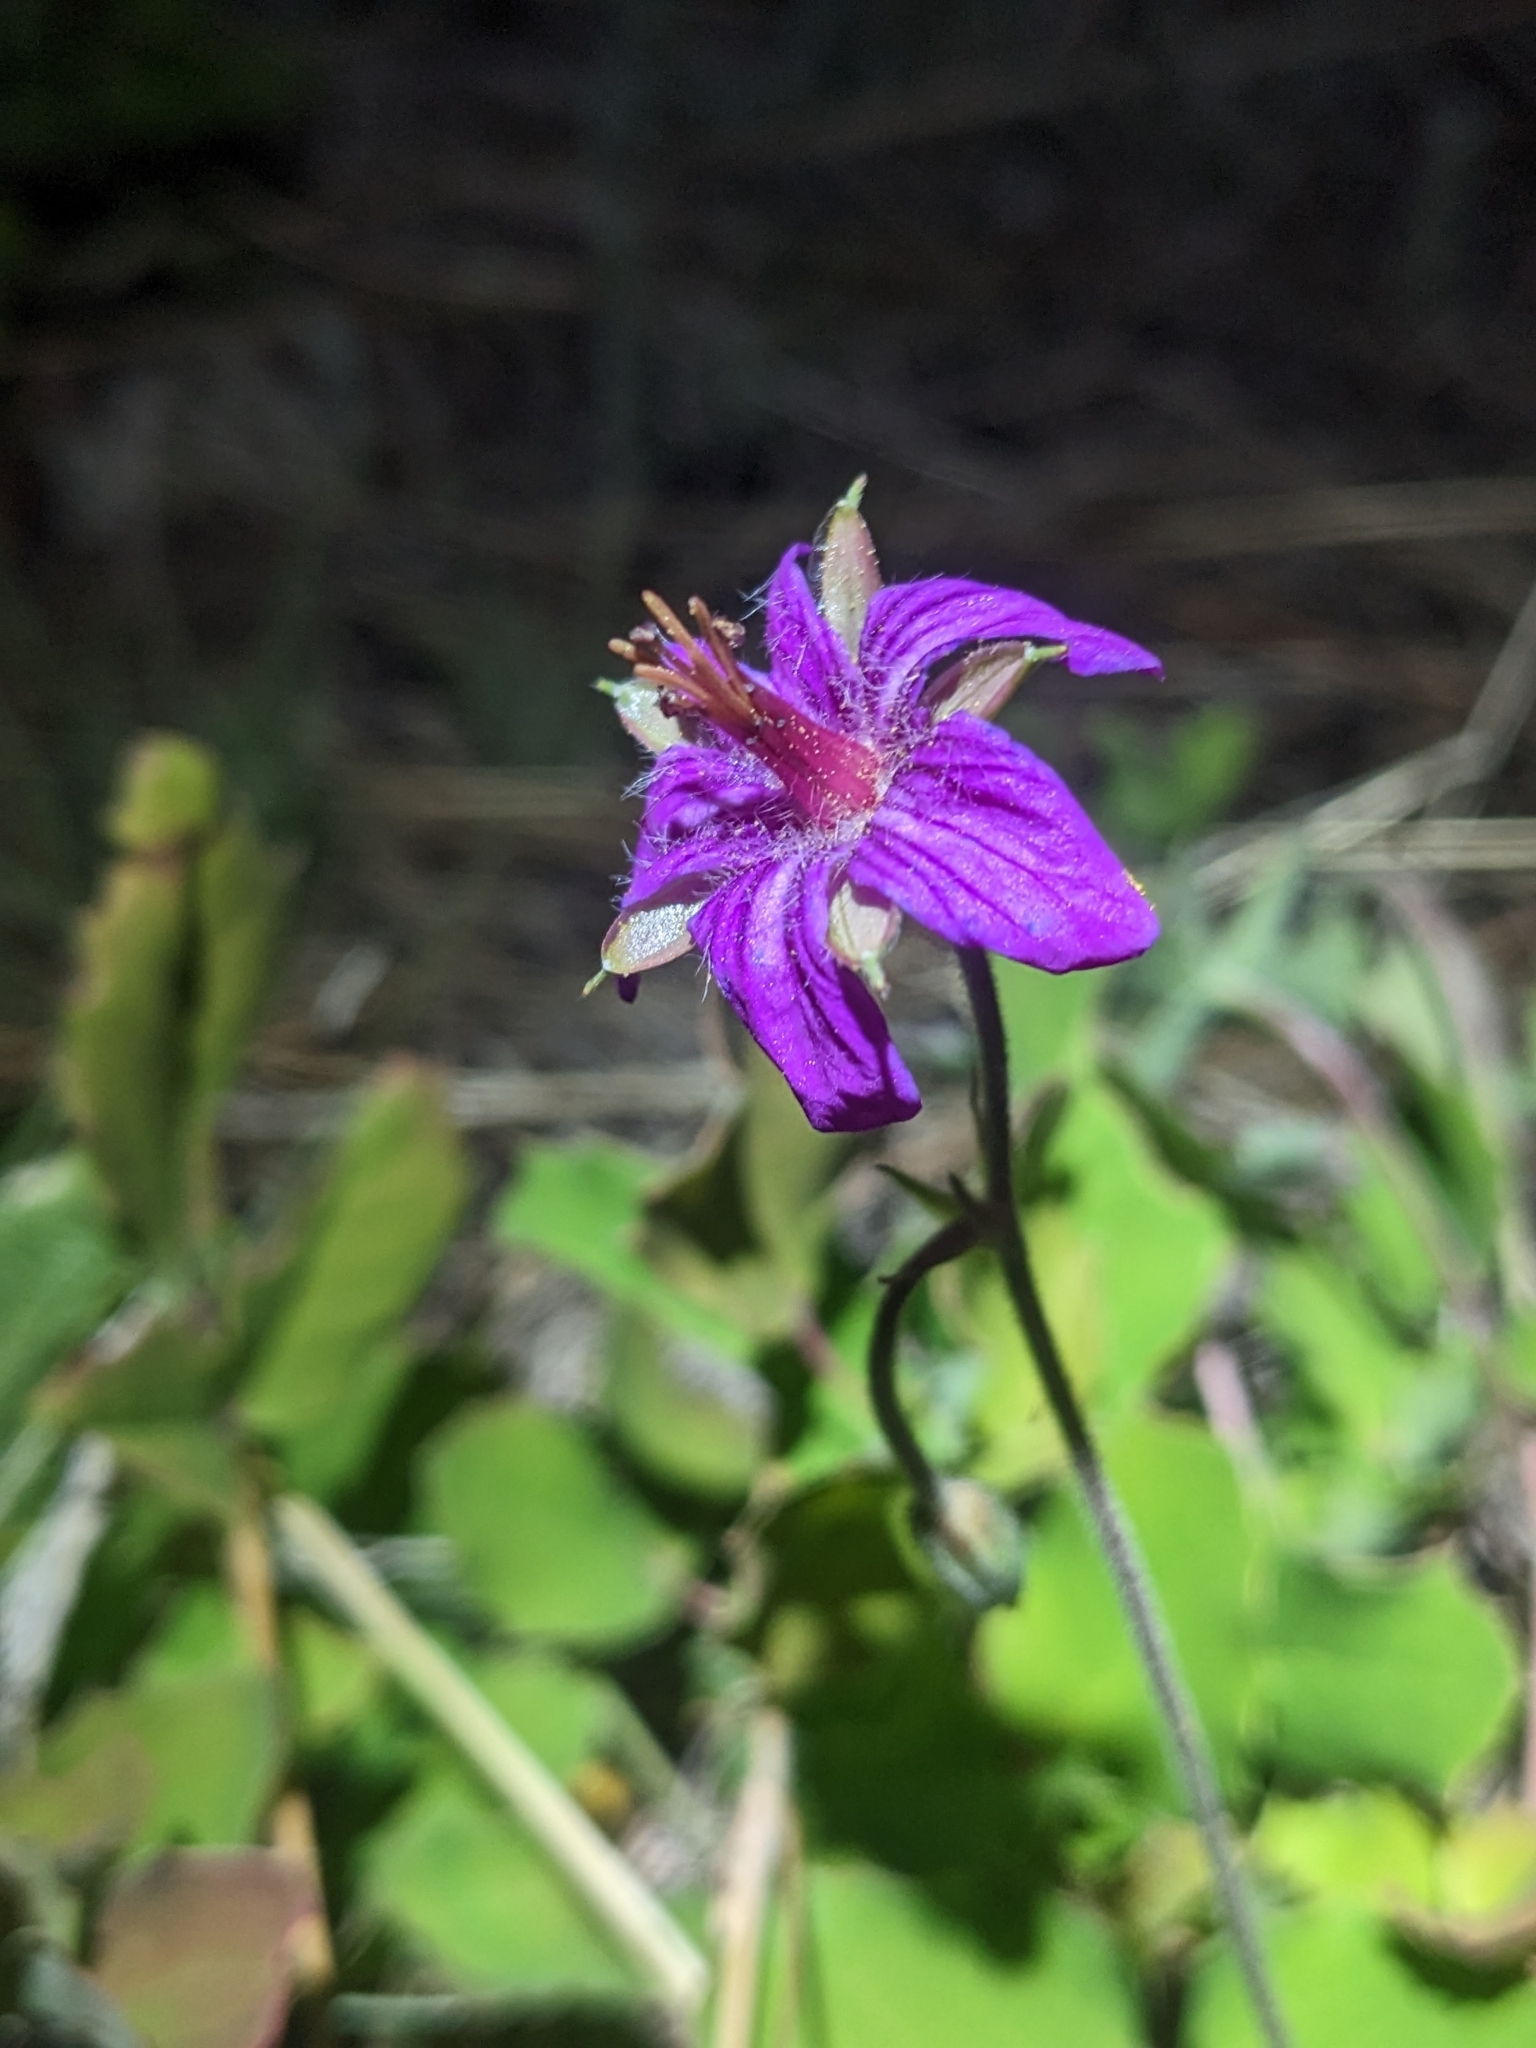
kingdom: Plantae
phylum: Tracheophyta
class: Magnoliopsida
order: Geraniales
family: Geraniaceae
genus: Geranium
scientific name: Geranium caespitosum
